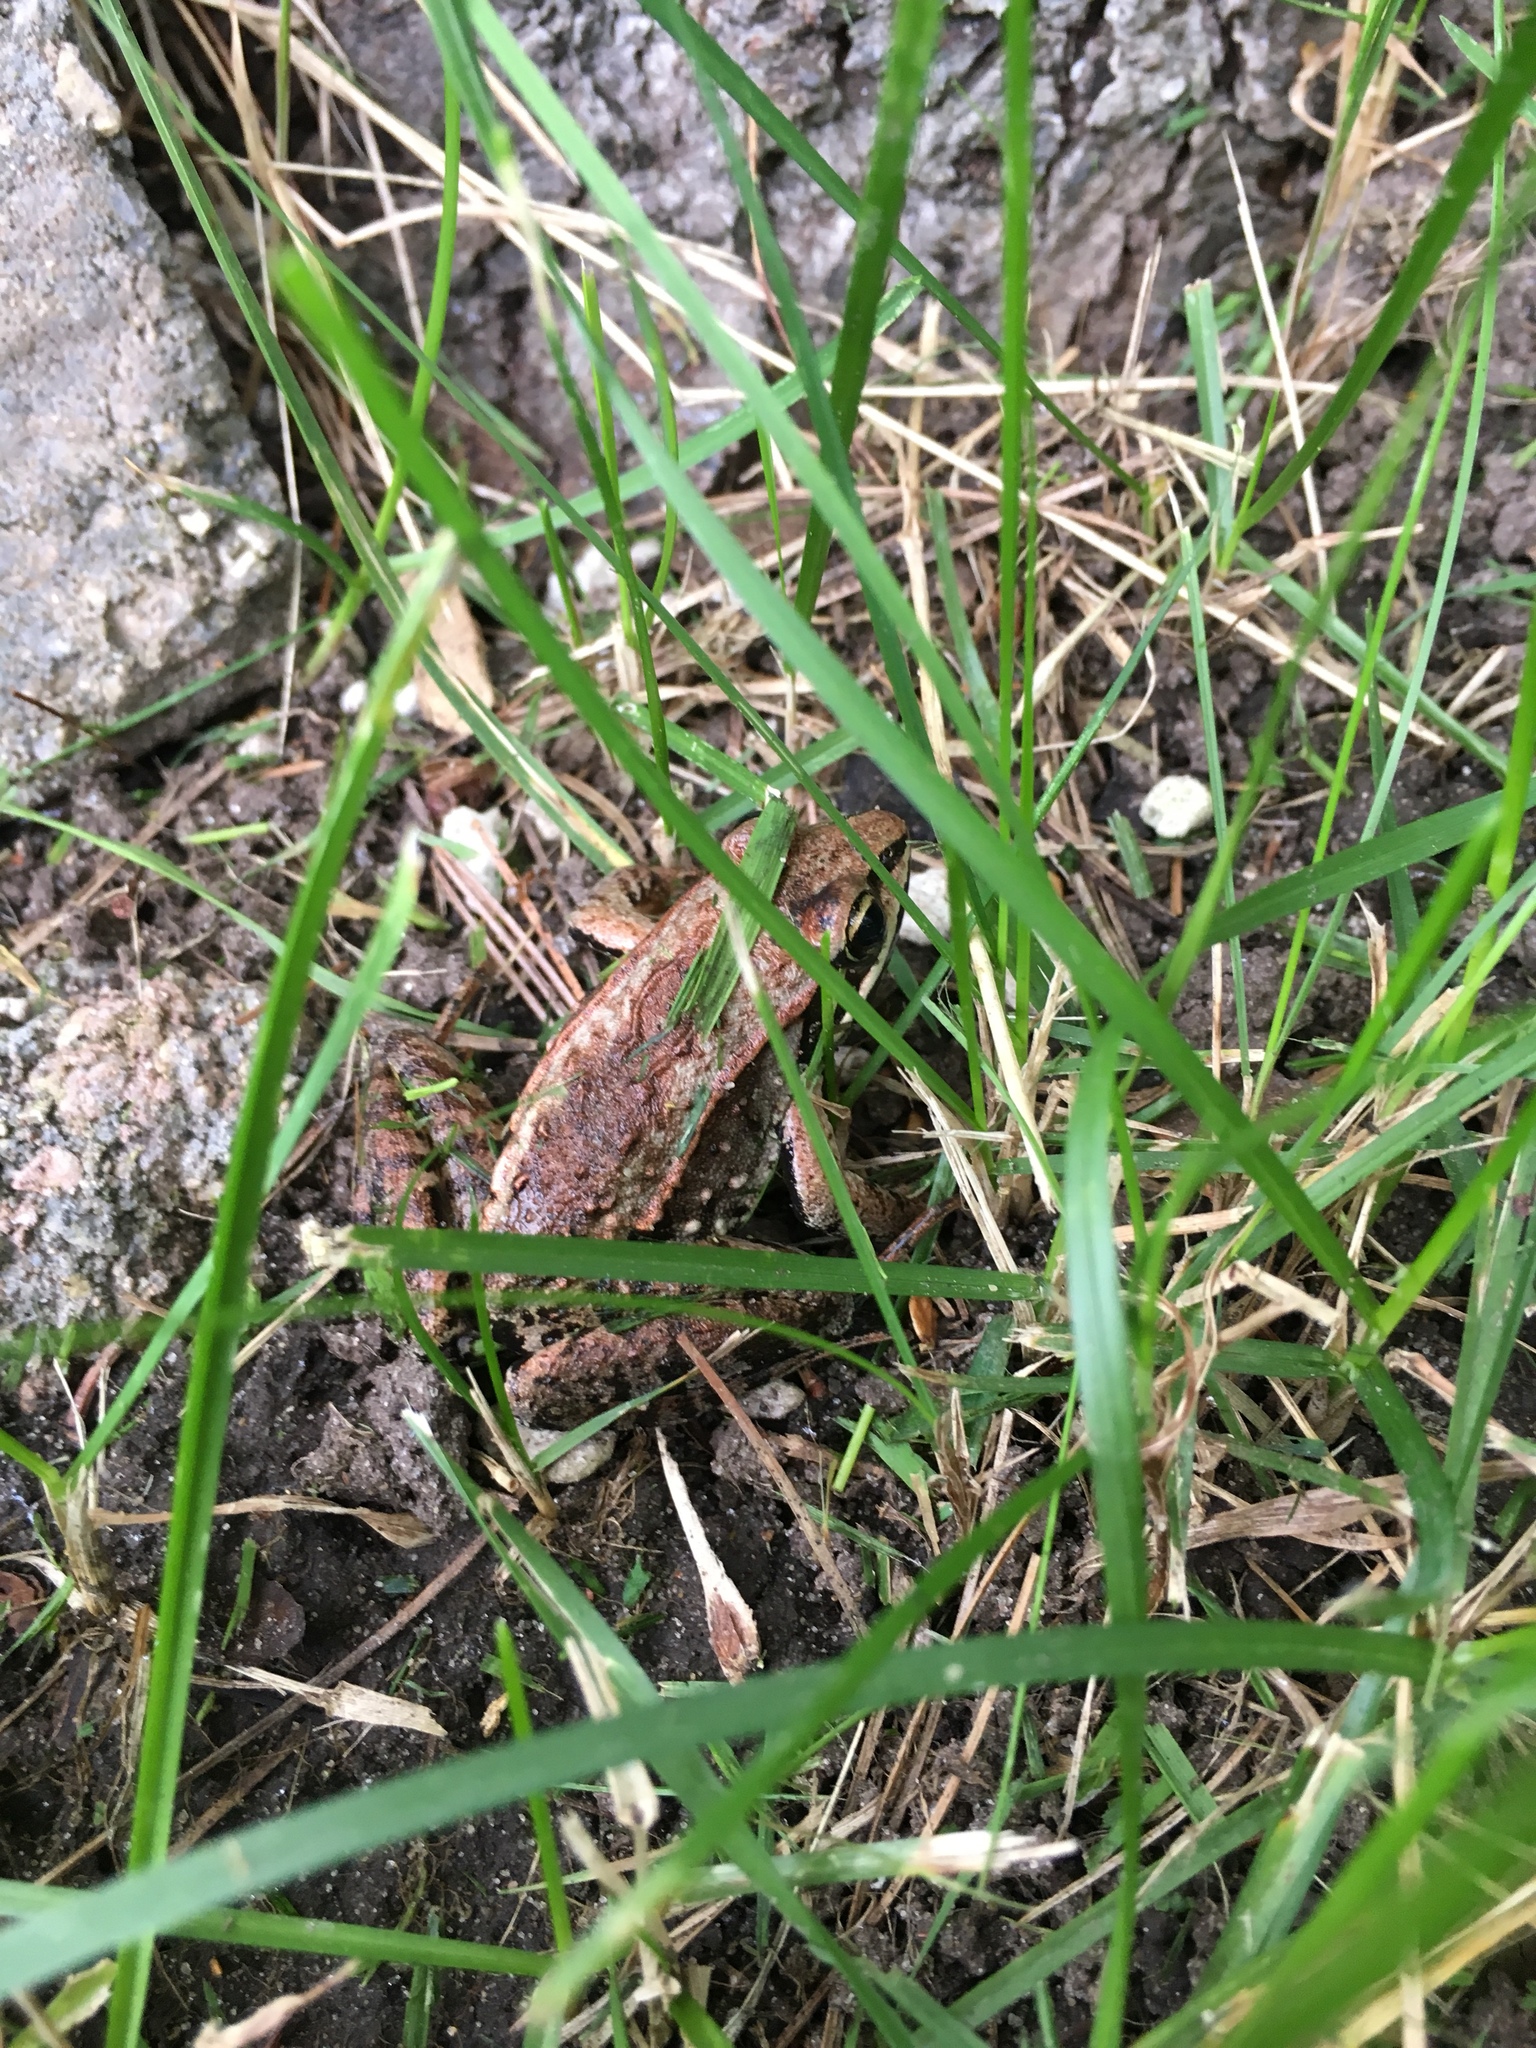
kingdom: Animalia
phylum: Chordata
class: Amphibia
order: Anura
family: Ranidae
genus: Lithobates
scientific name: Lithobates sylvaticus
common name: Wood frog
